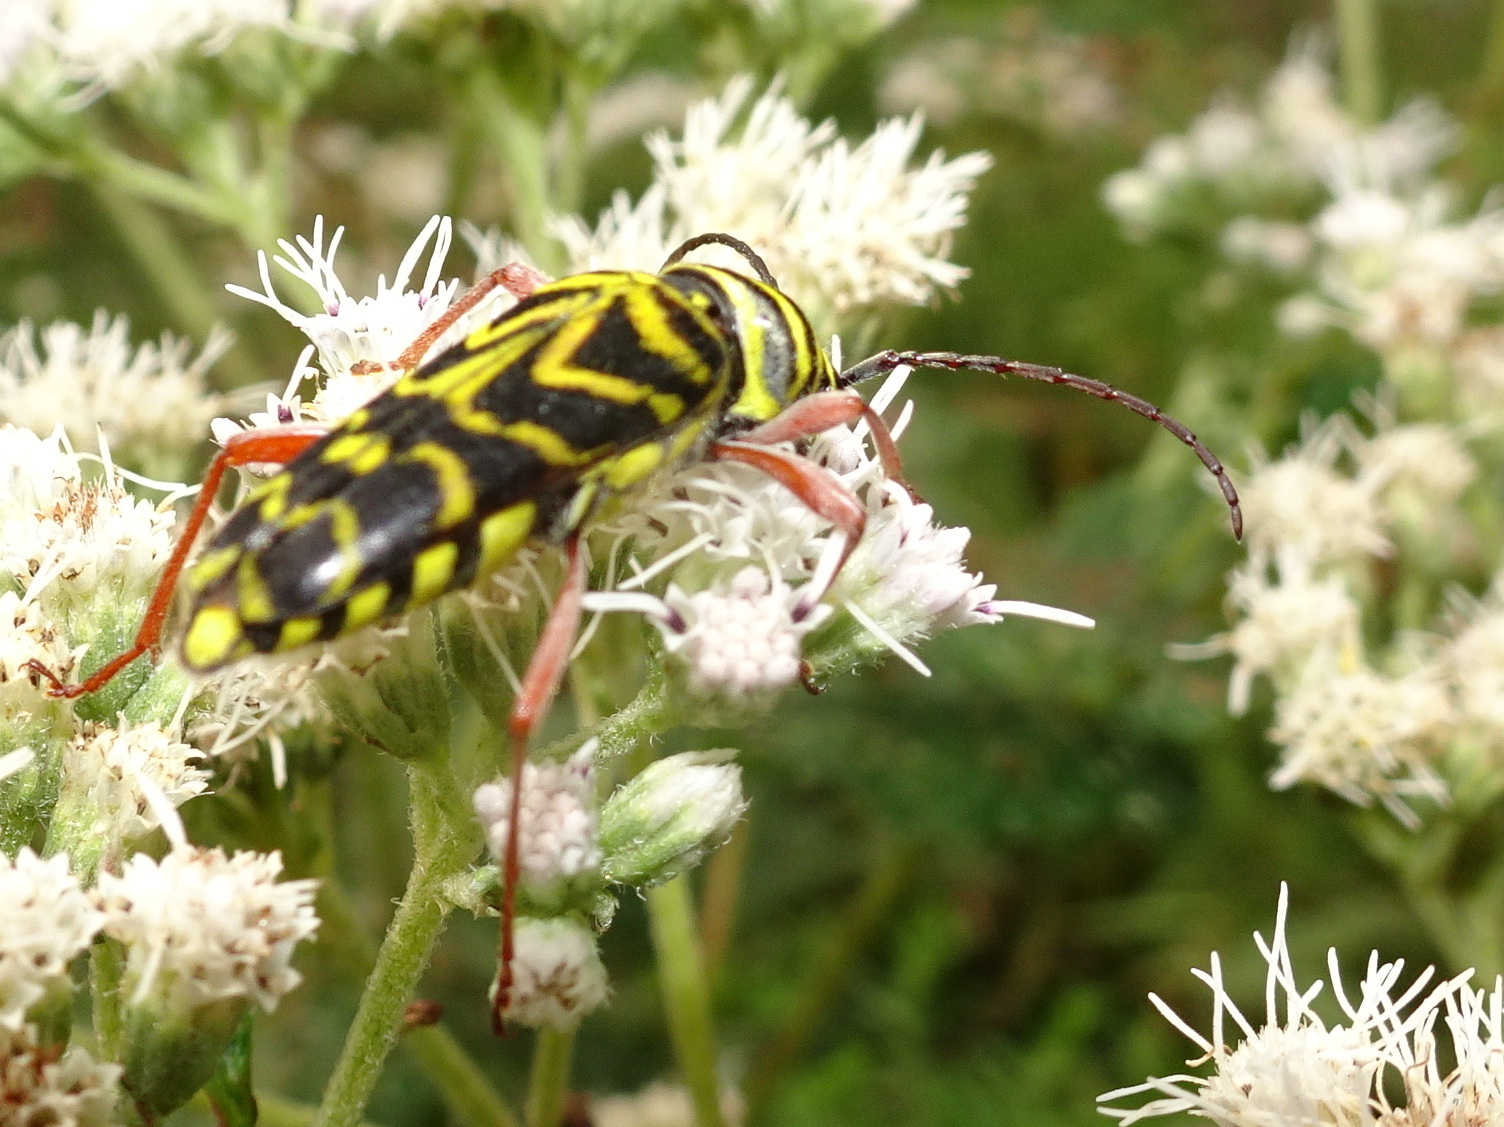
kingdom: Animalia
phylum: Arthropoda
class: Insecta
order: Coleoptera
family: Cerambycidae
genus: Megacyllene
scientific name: Megacyllene robiniae
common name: Locust borer
